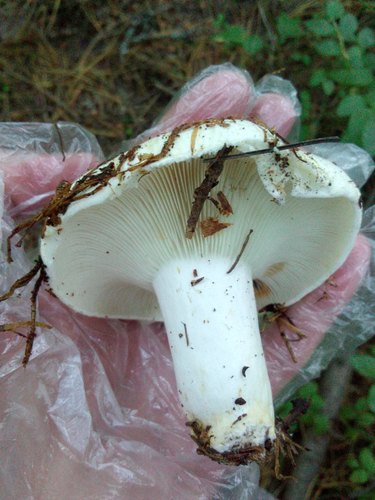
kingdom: Fungi
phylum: Basidiomycota
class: Agaricomycetes
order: Russulales
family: Russulaceae
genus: Russula
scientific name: Russula
